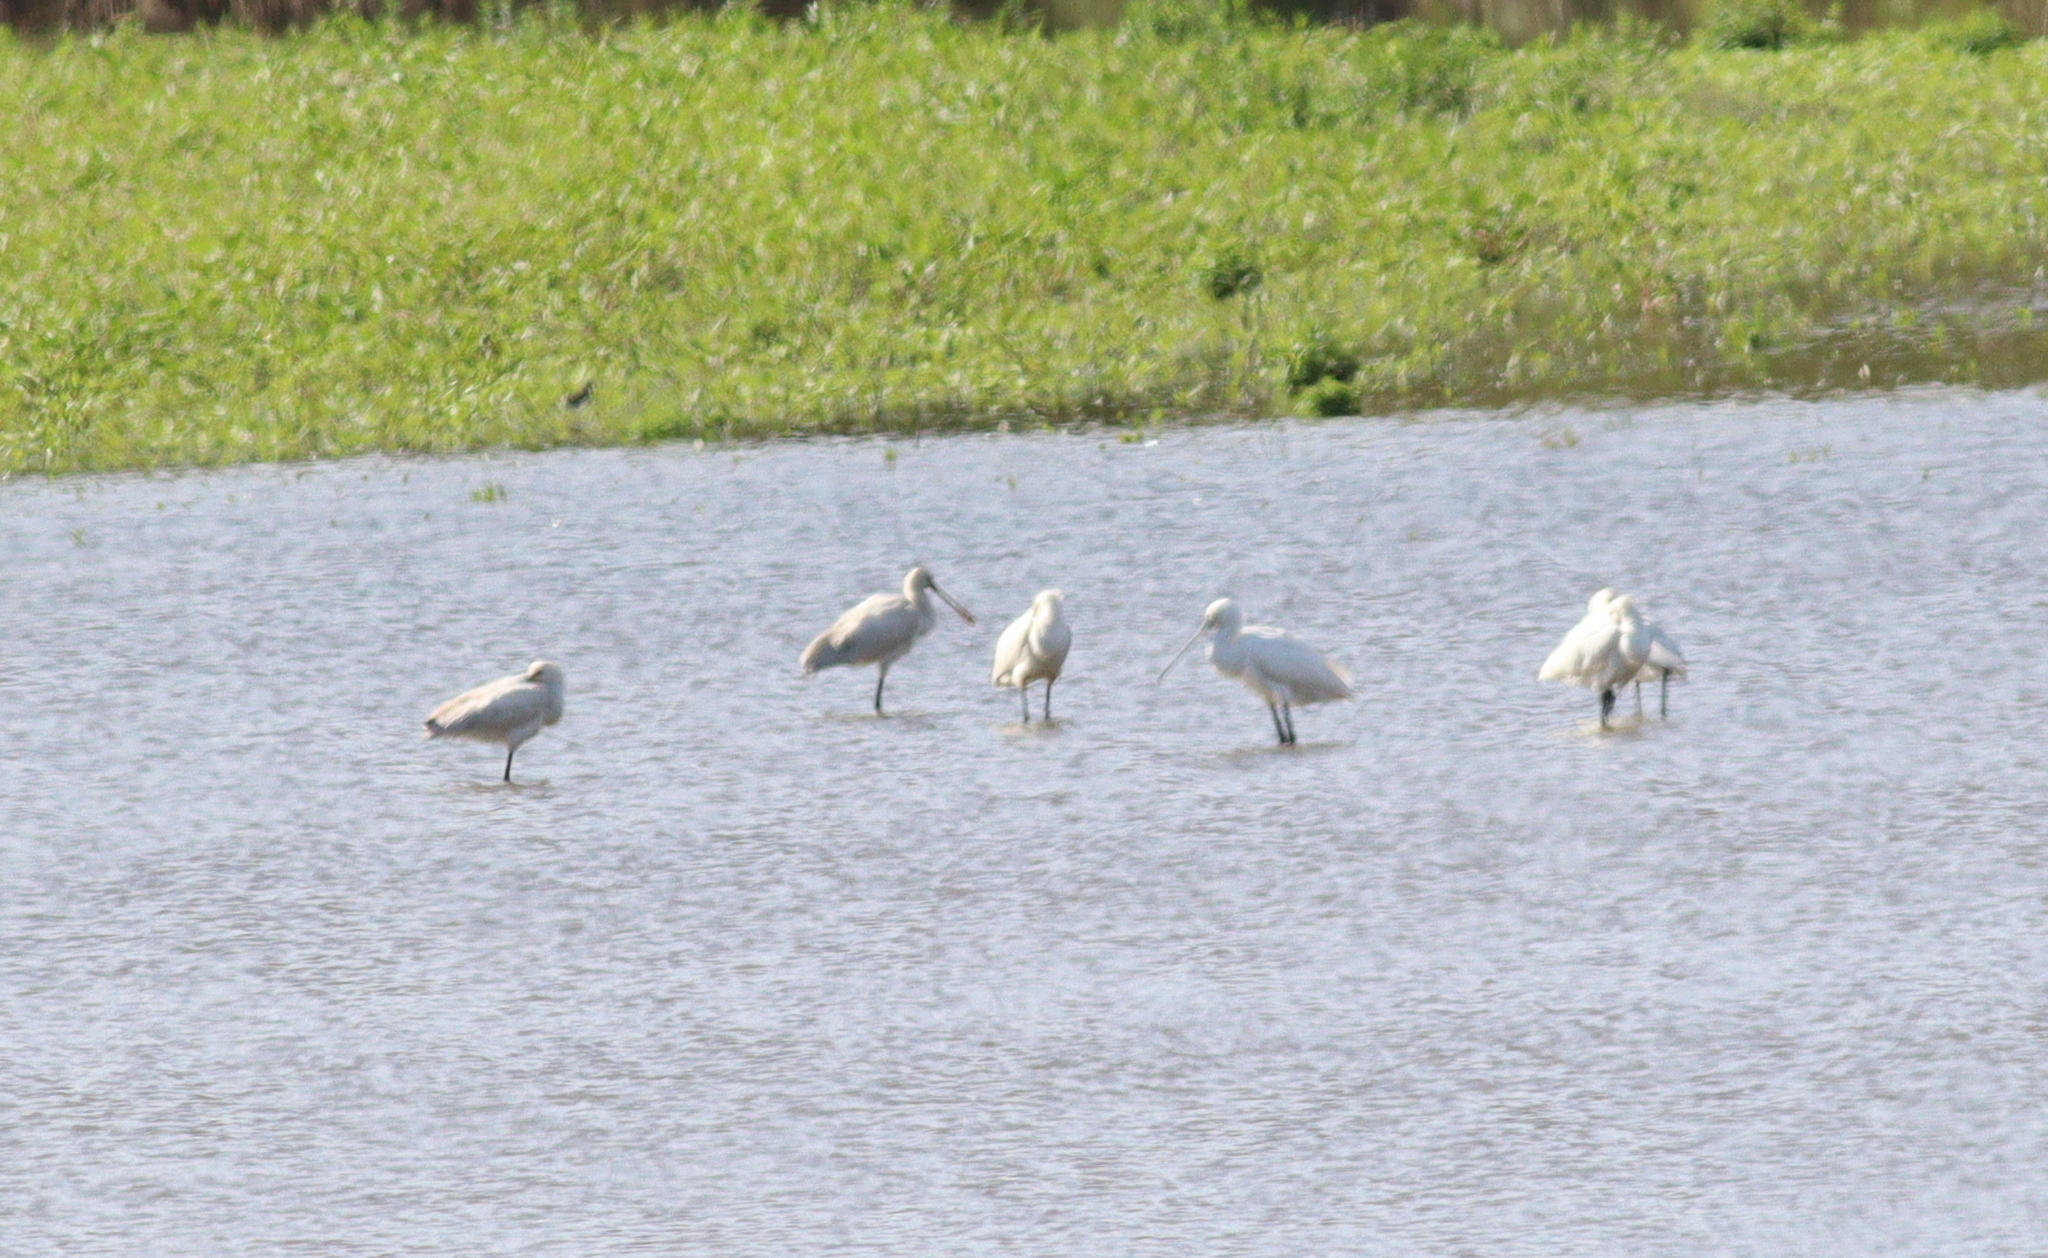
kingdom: Animalia
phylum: Chordata
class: Aves
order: Pelecaniformes
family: Threskiornithidae
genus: Platalea
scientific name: Platalea leucorodia
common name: Eurasian spoonbill
